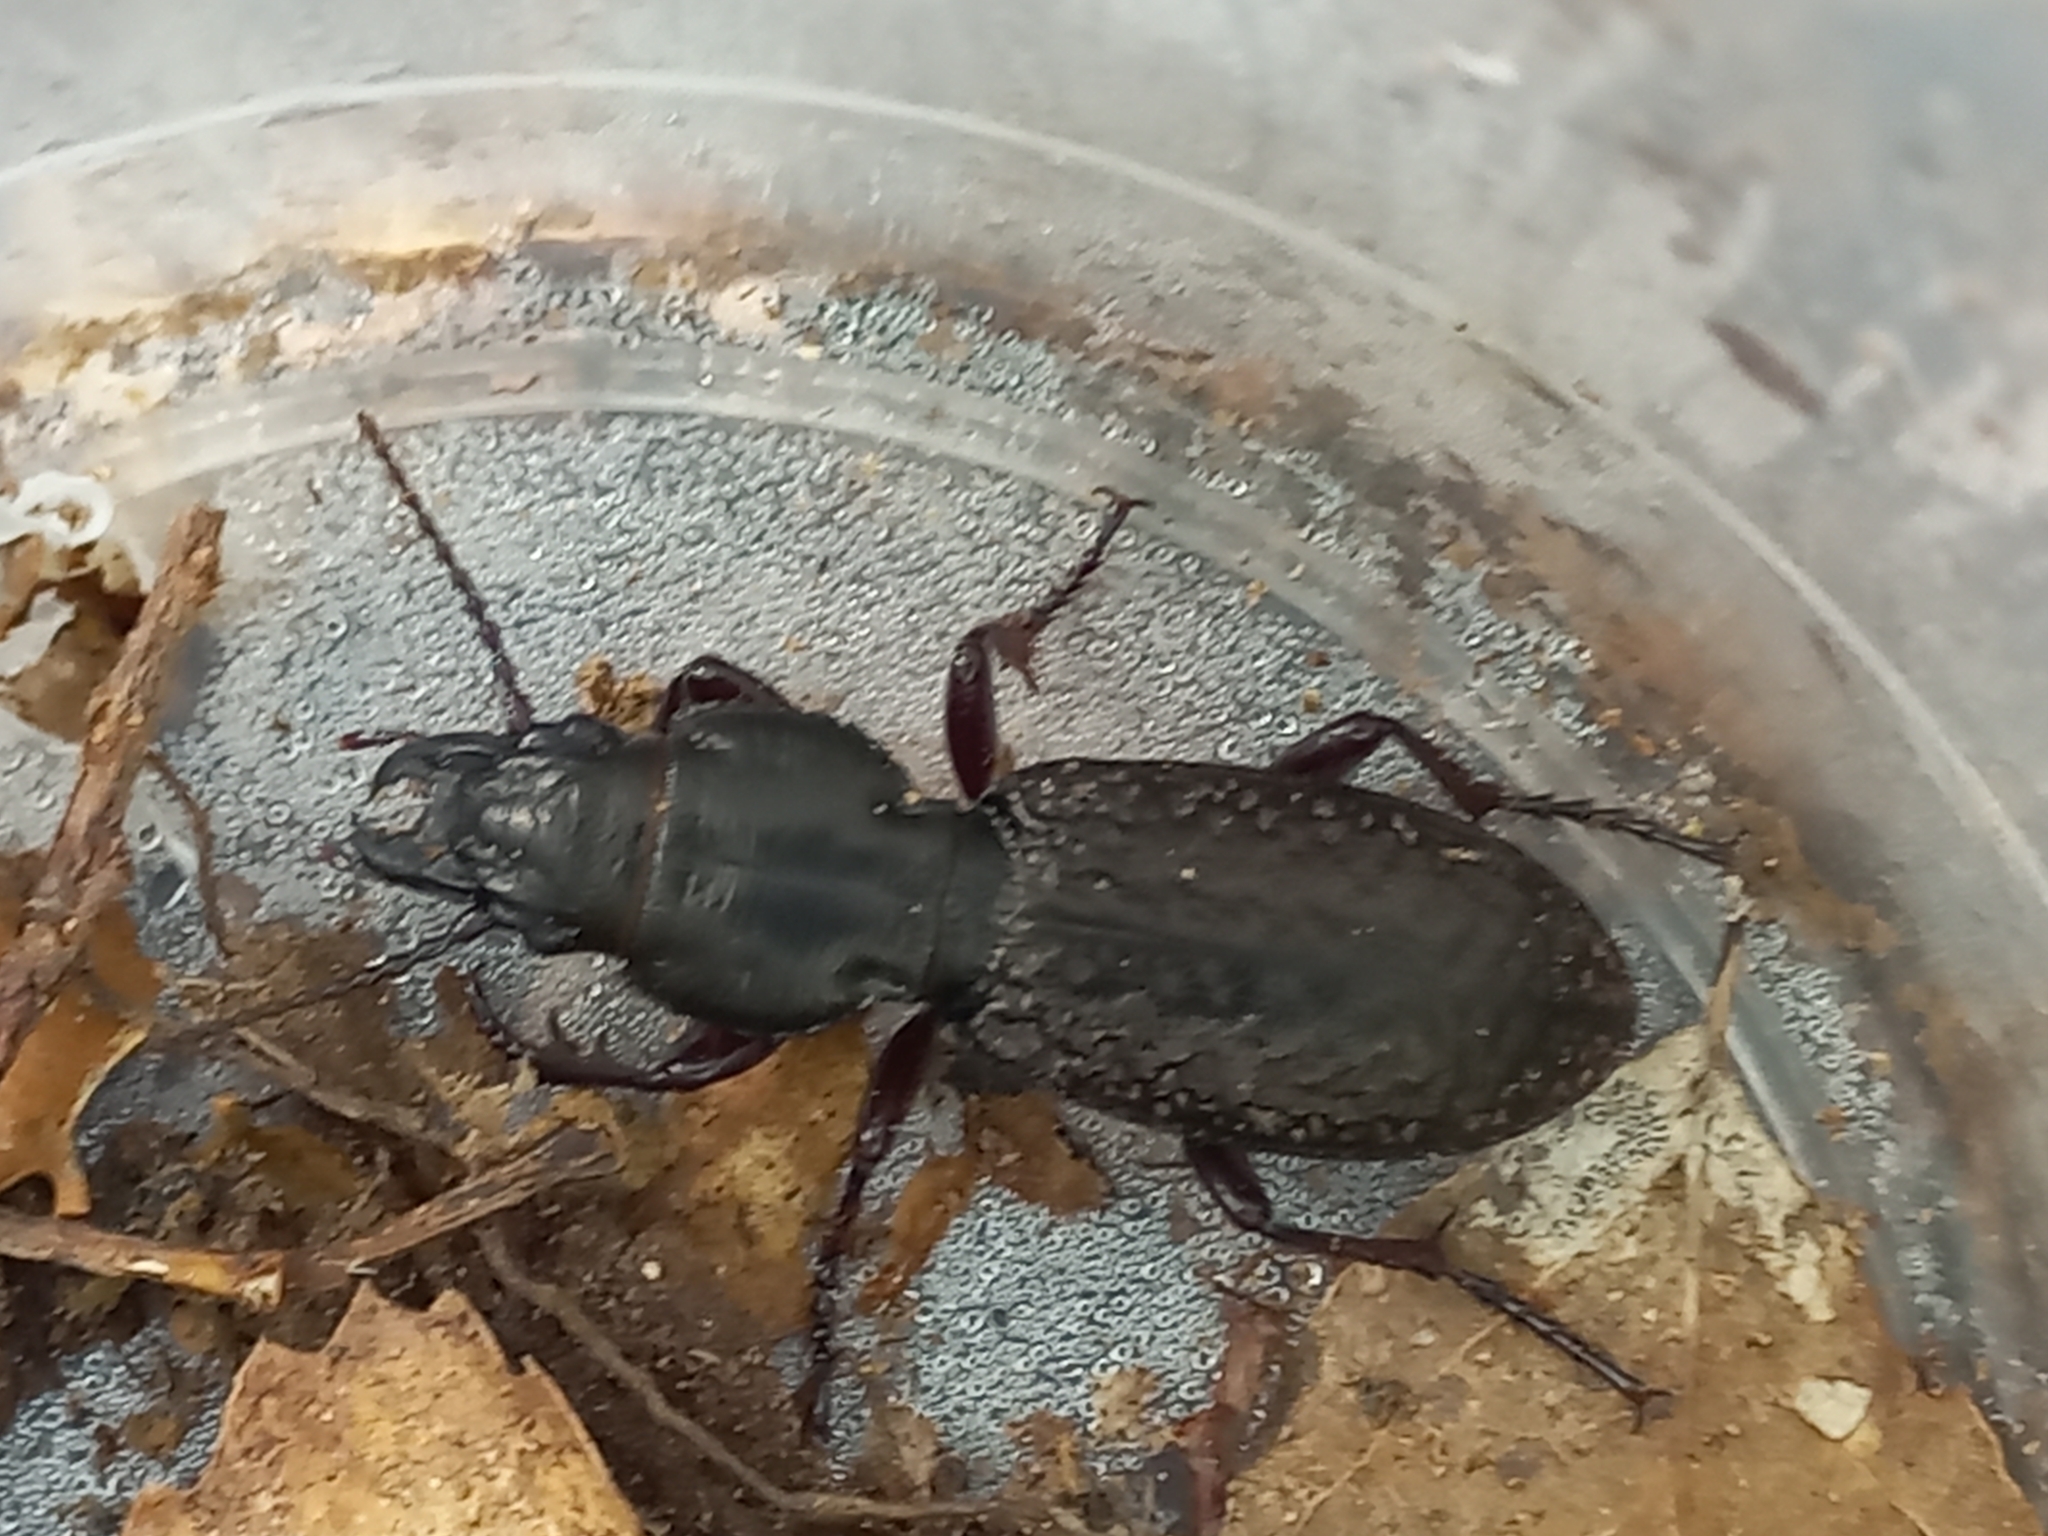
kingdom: Animalia
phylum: Arthropoda
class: Insecta
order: Coleoptera
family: Carabidae
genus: Mecodema
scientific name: Mecodema crenicolle
